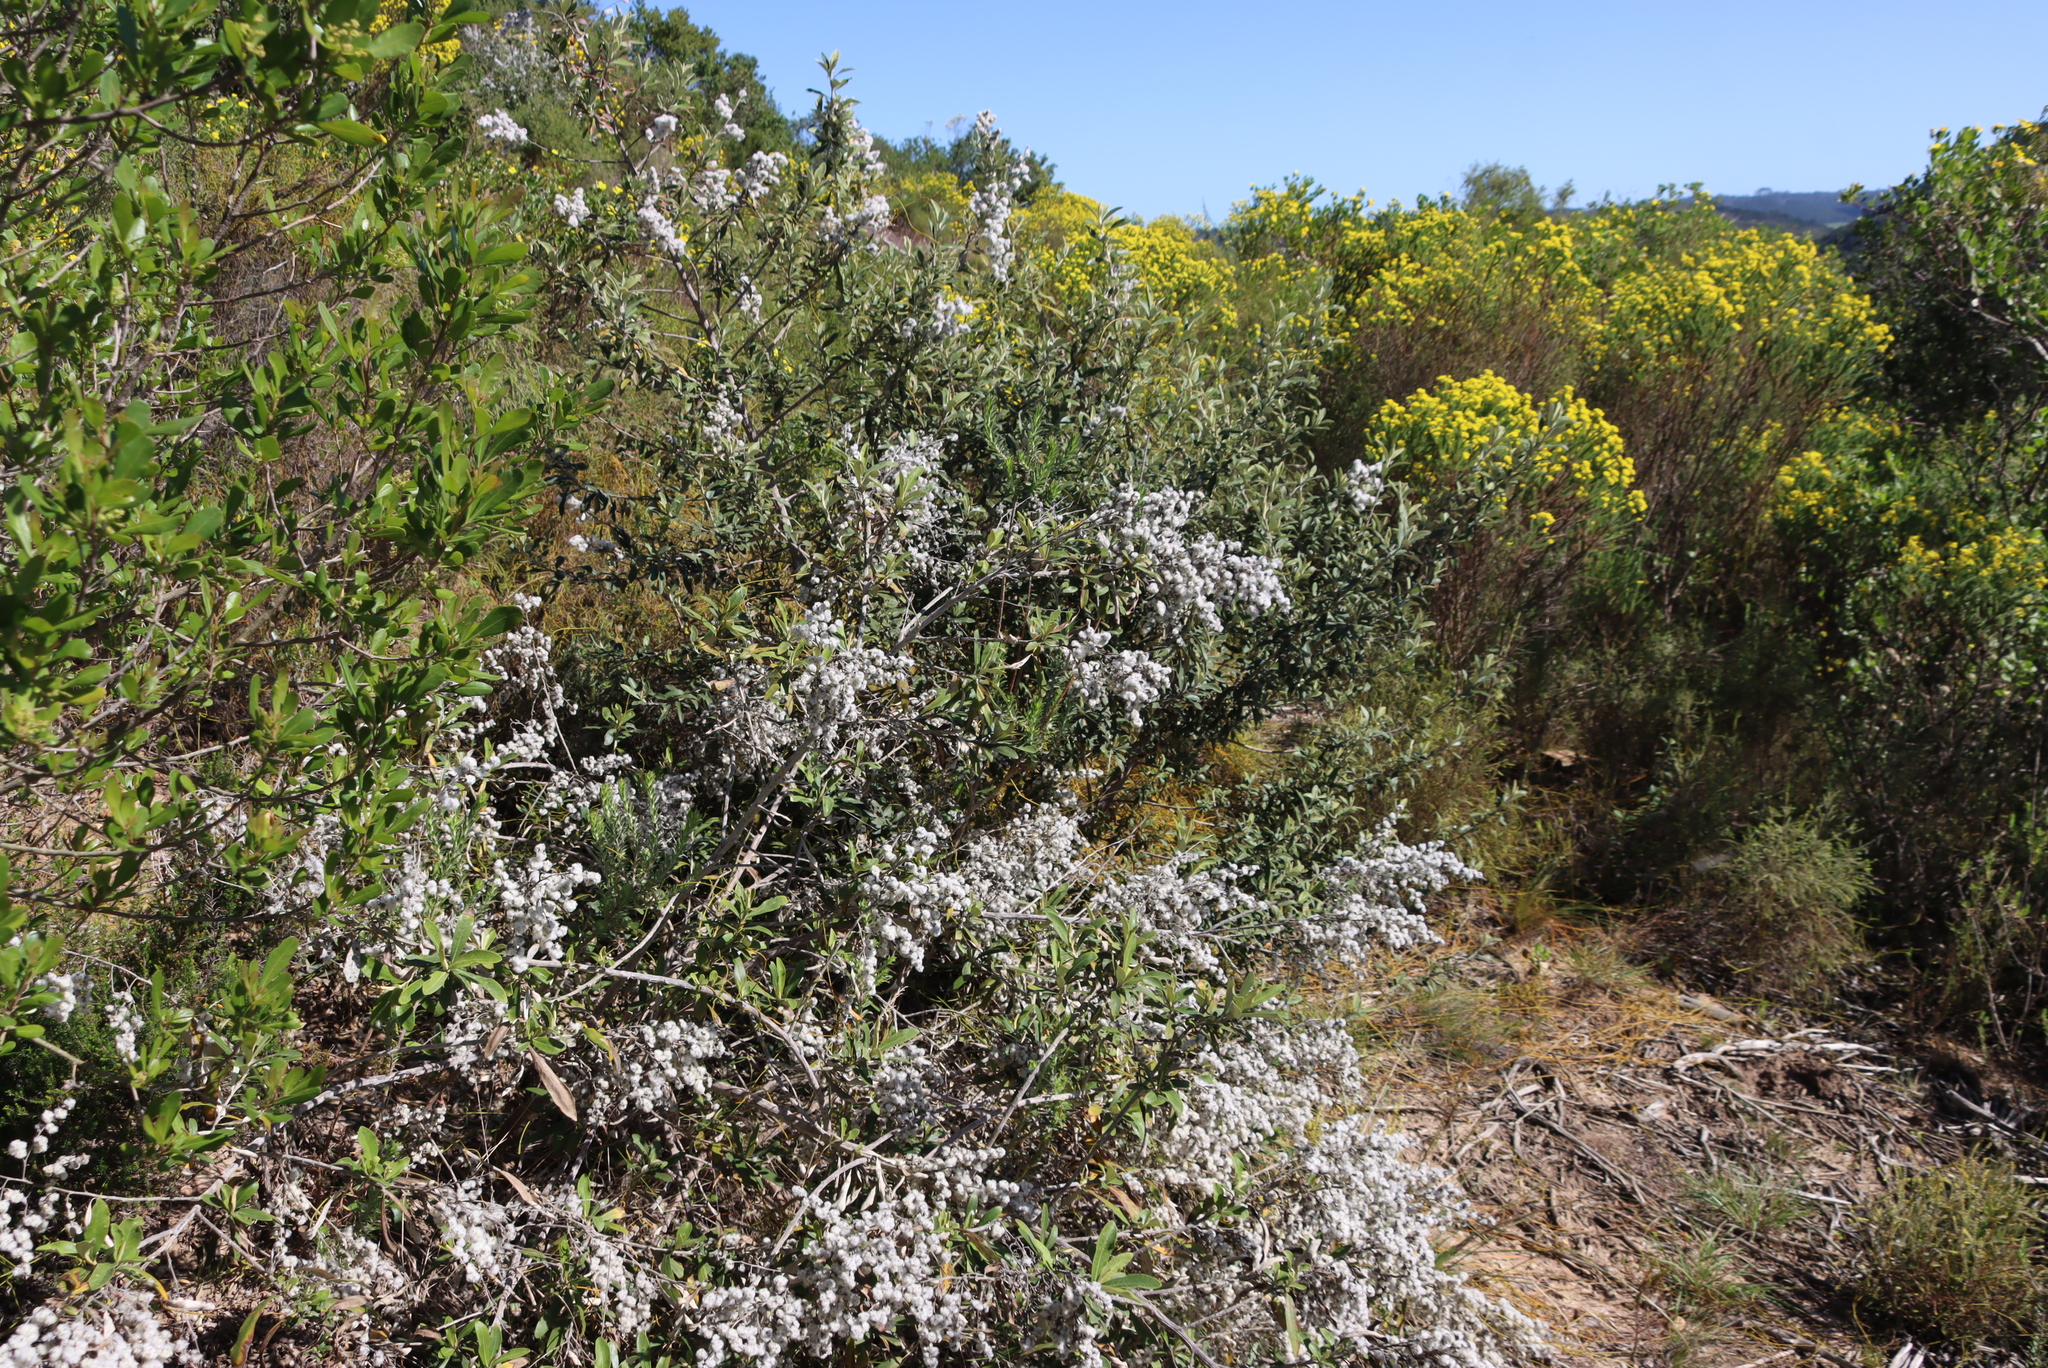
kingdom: Plantae
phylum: Tracheophyta
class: Magnoliopsida
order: Asterales
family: Asteraceae
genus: Tarchonanthus
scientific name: Tarchonanthus littoralis
